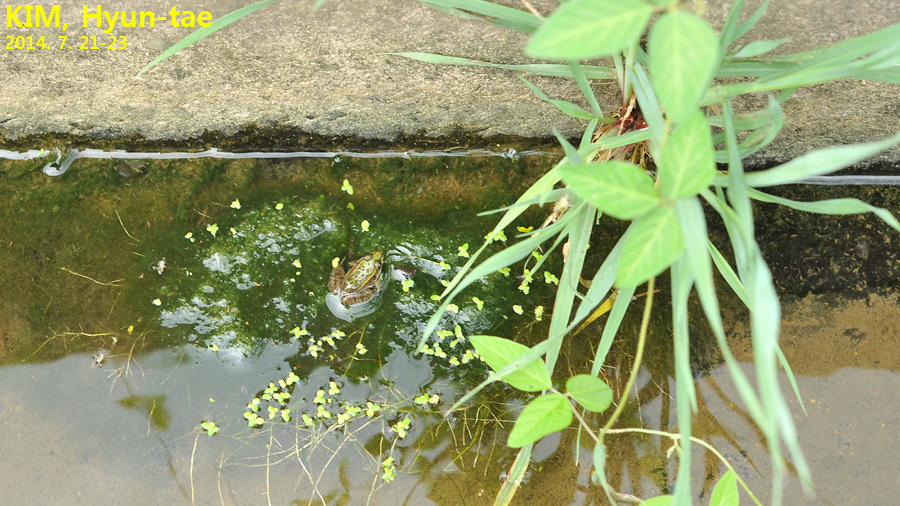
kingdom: Animalia
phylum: Chordata
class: Amphibia
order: Anura
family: Ranidae
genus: Pelophylax
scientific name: Pelophylax nigromaculatus
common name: Black-spotted pond frog
